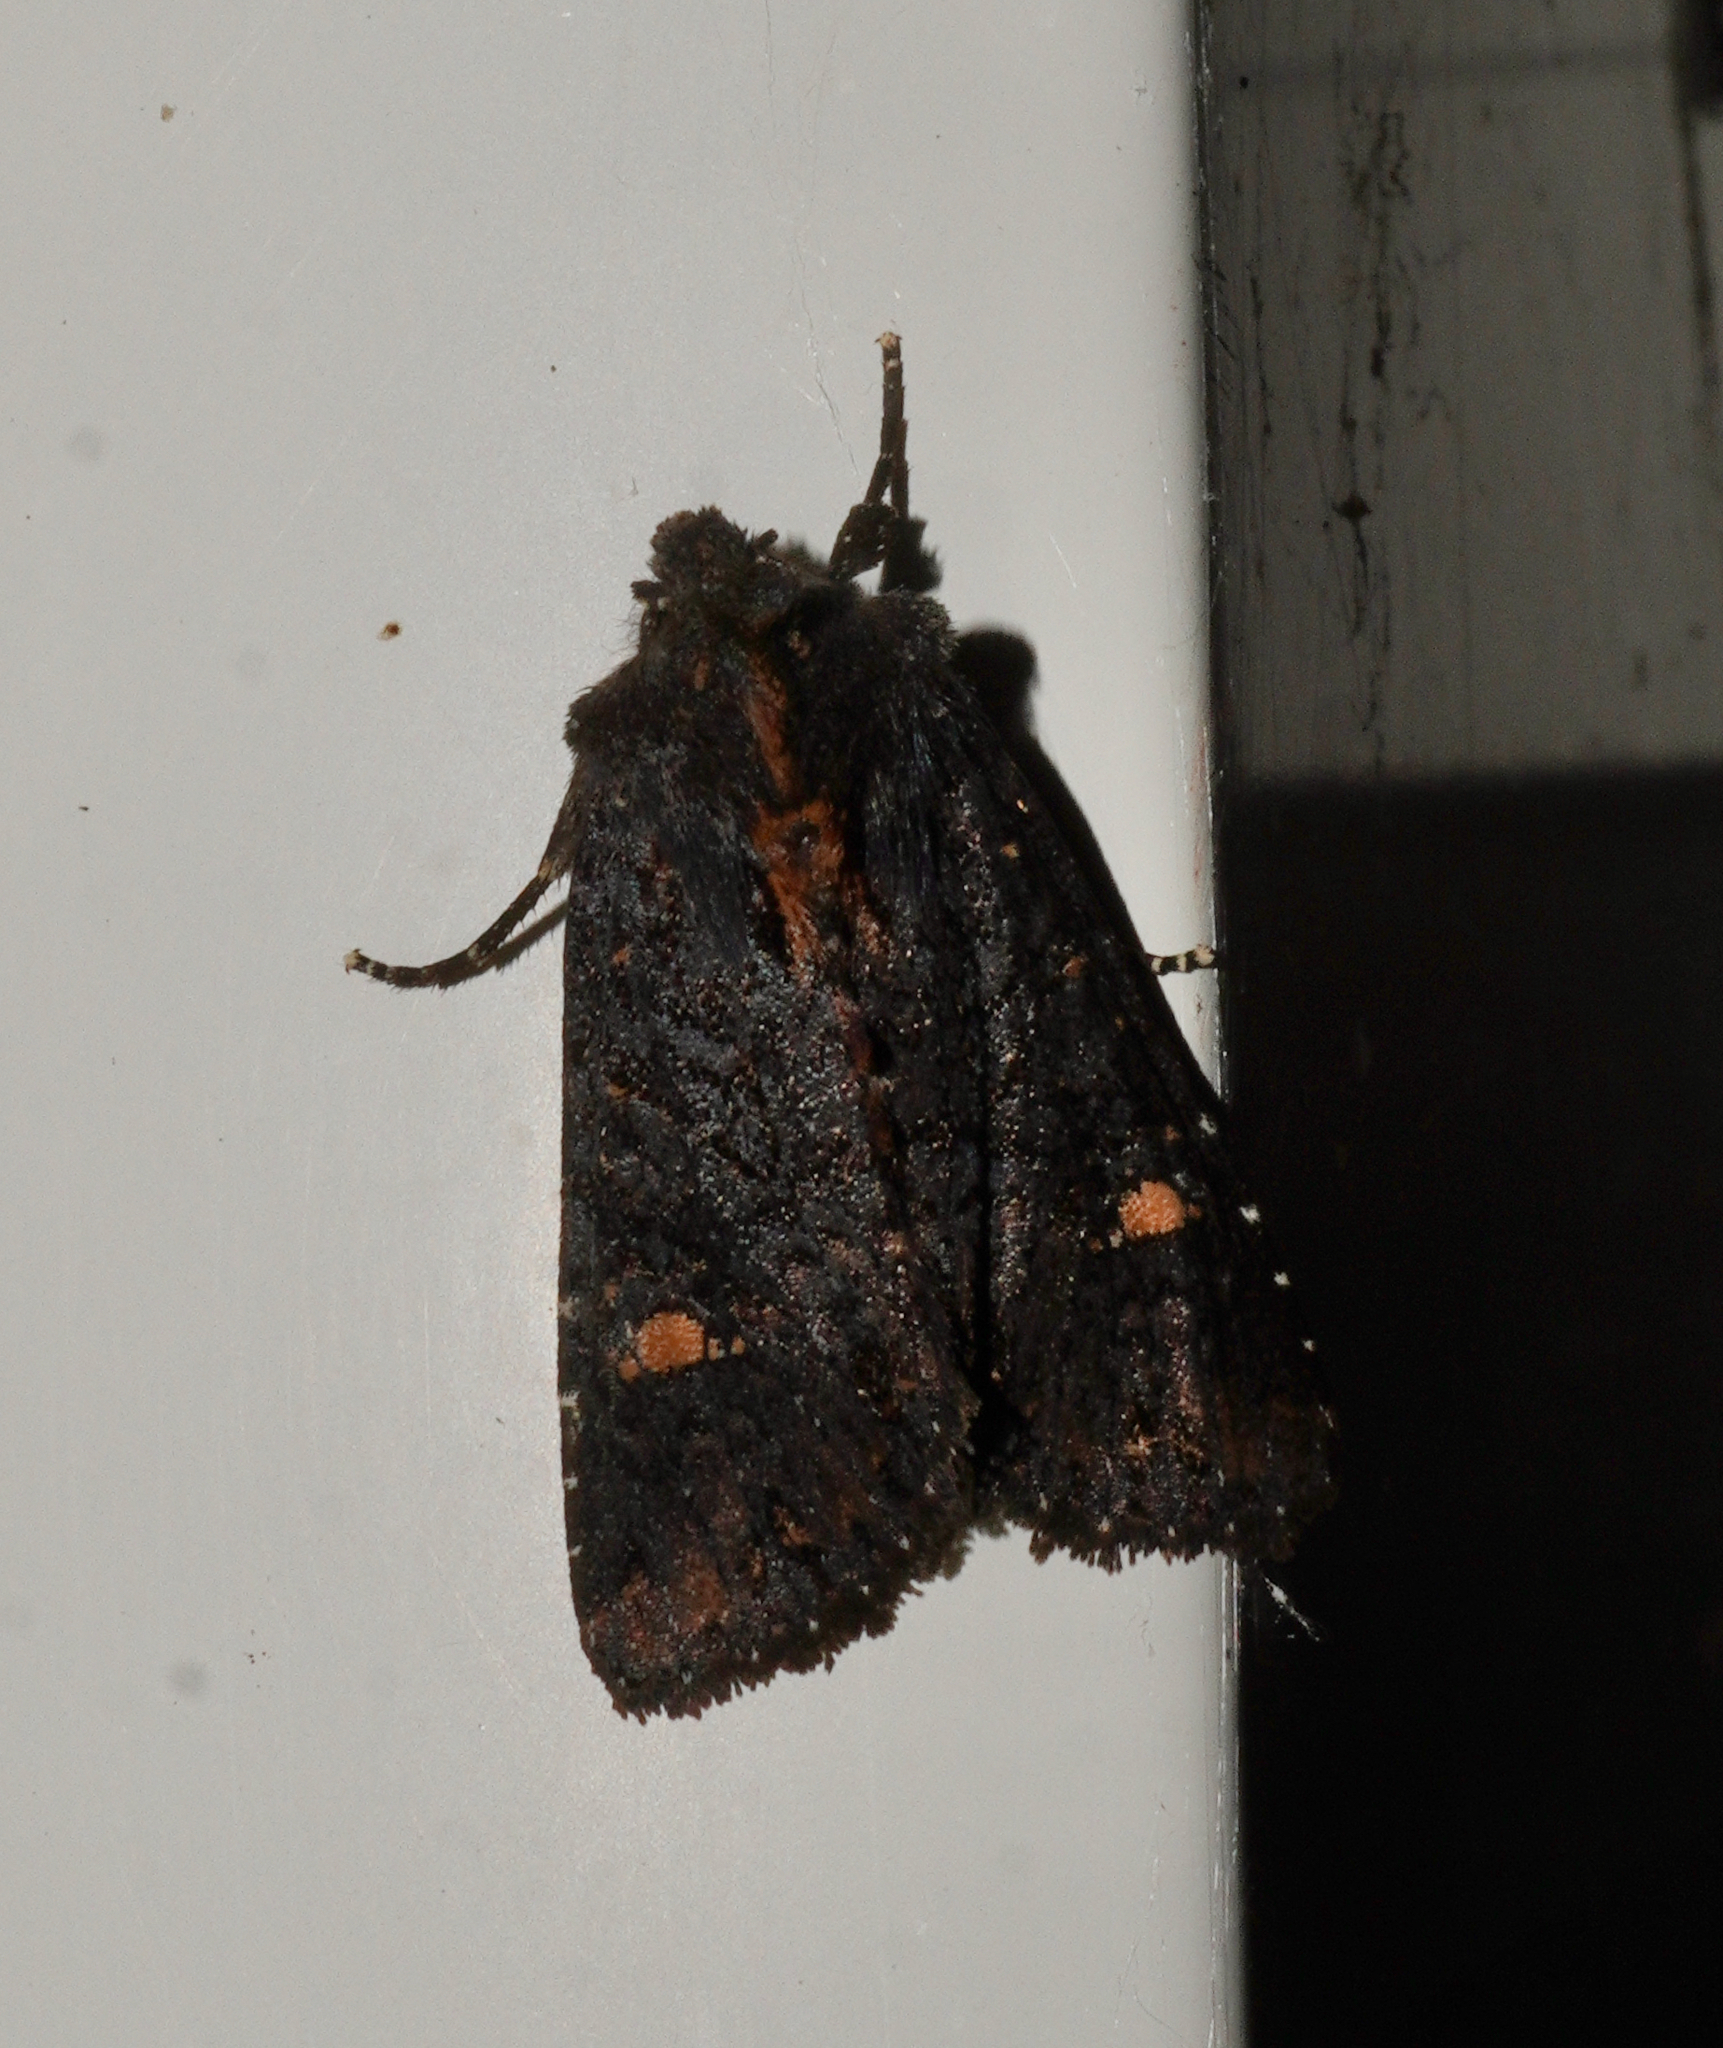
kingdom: Animalia
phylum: Arthropoda
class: Insecta
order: Lepidoptera
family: Noctuidae
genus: Meterana
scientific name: Meterana vitiosa
